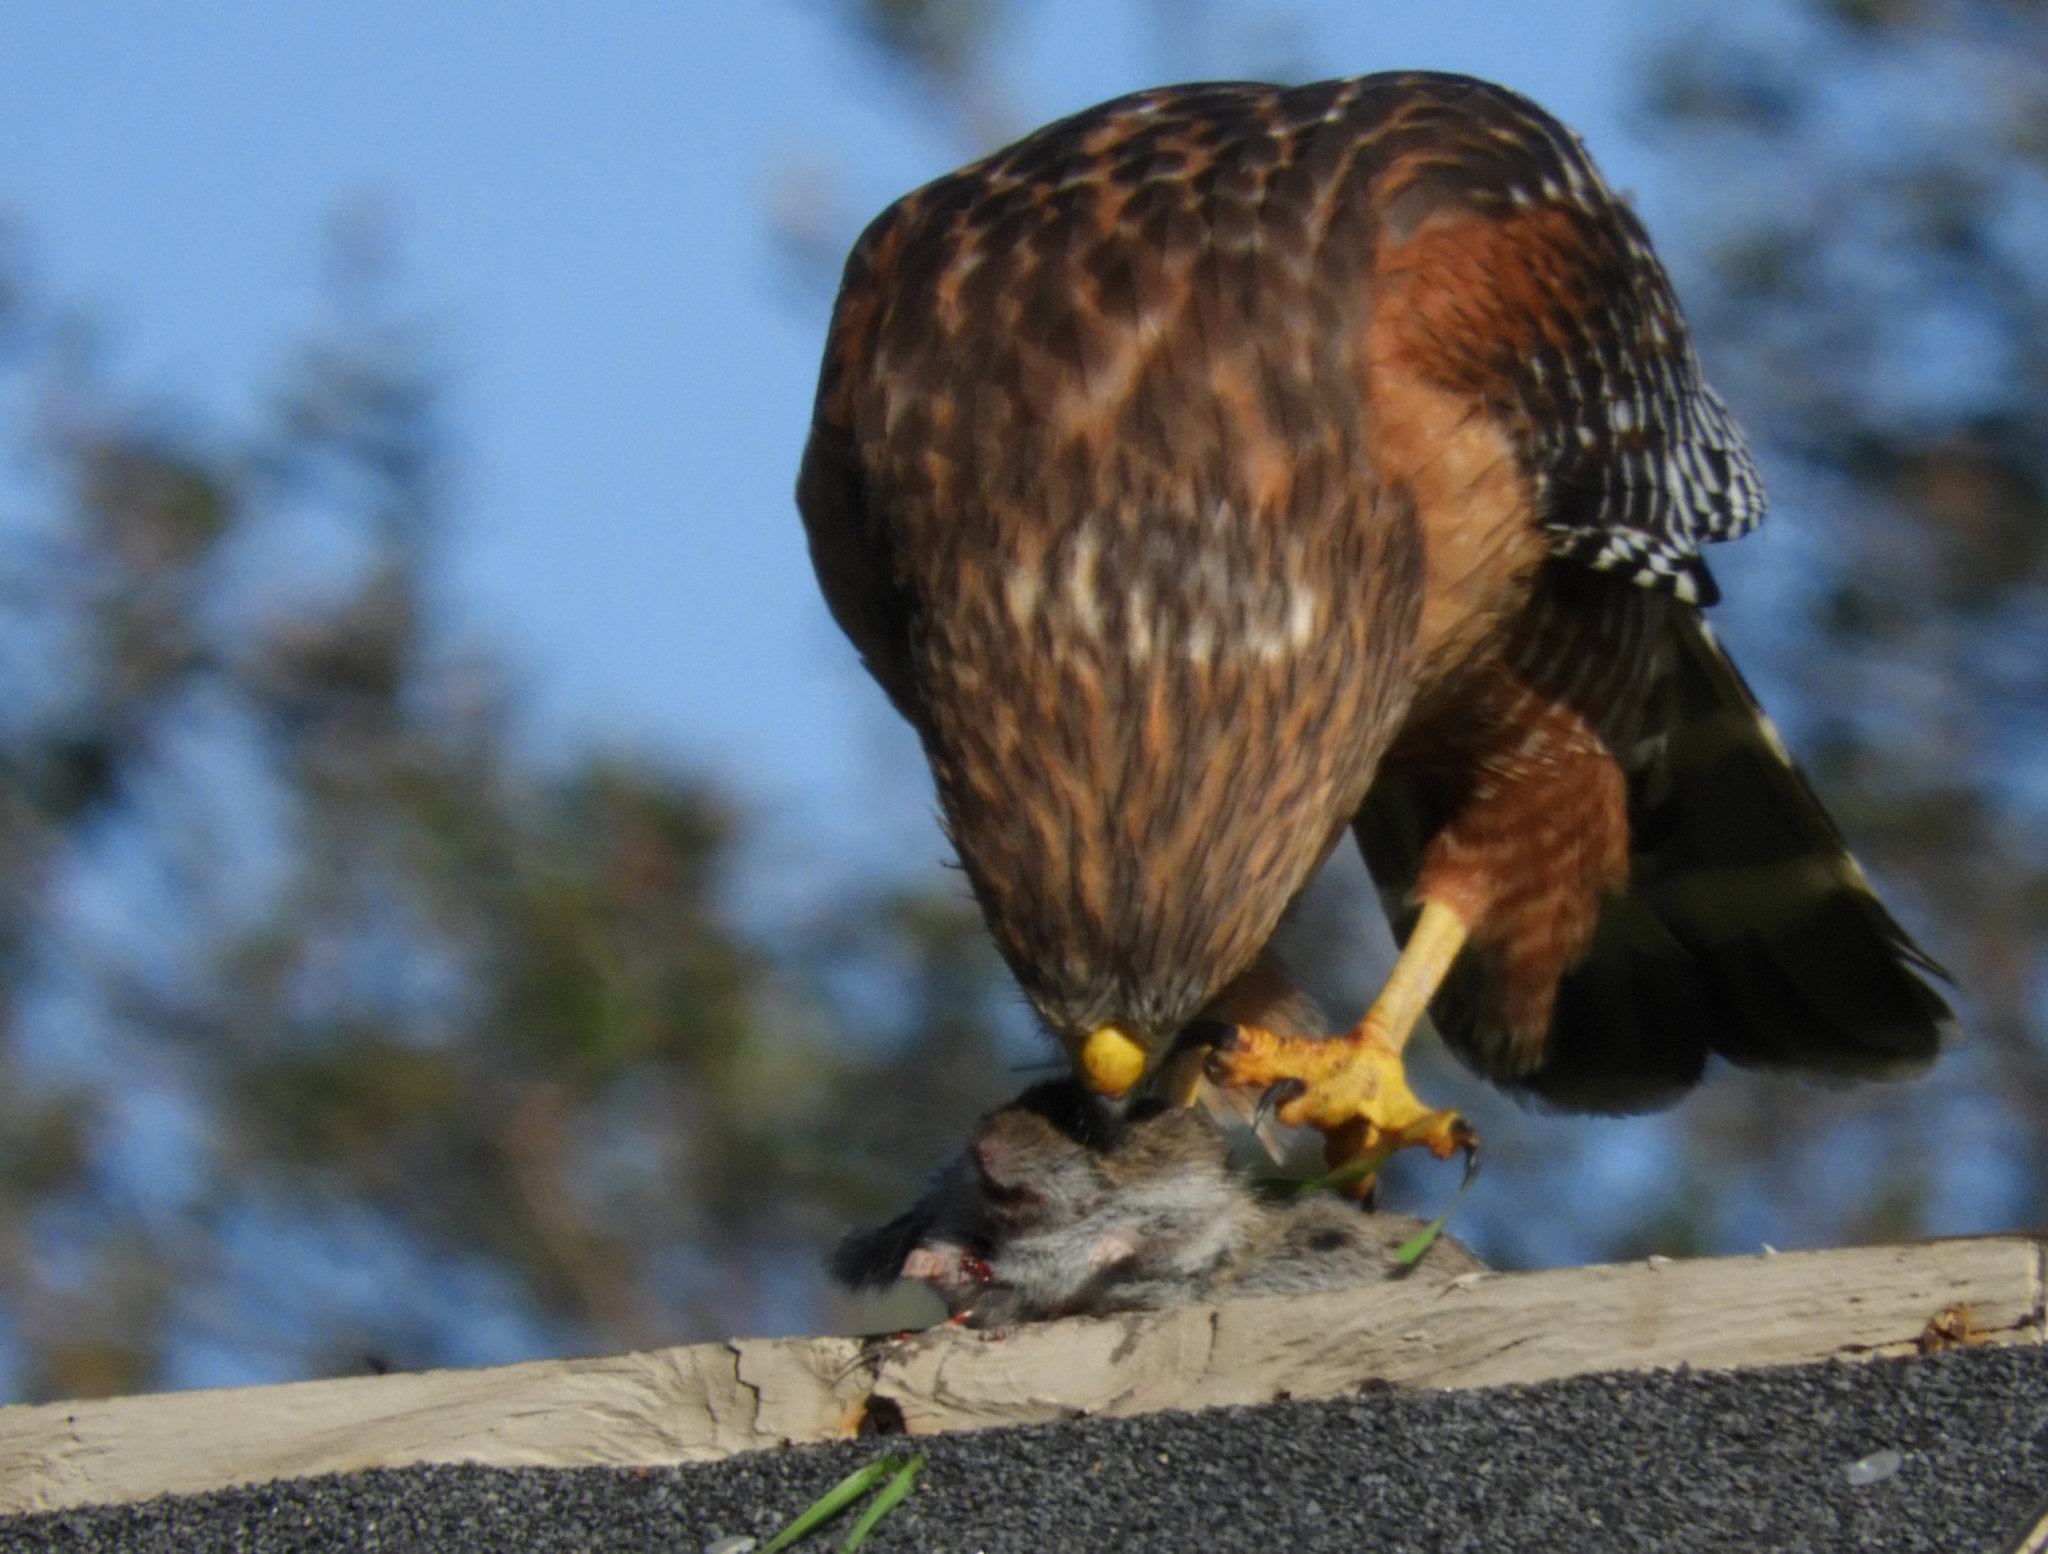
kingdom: Animalia
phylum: Chordata
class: Aves
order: Accipitriformes
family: Accipitridae
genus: Buteo
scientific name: Buteo lineatus
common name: Red-shouldered hawk
